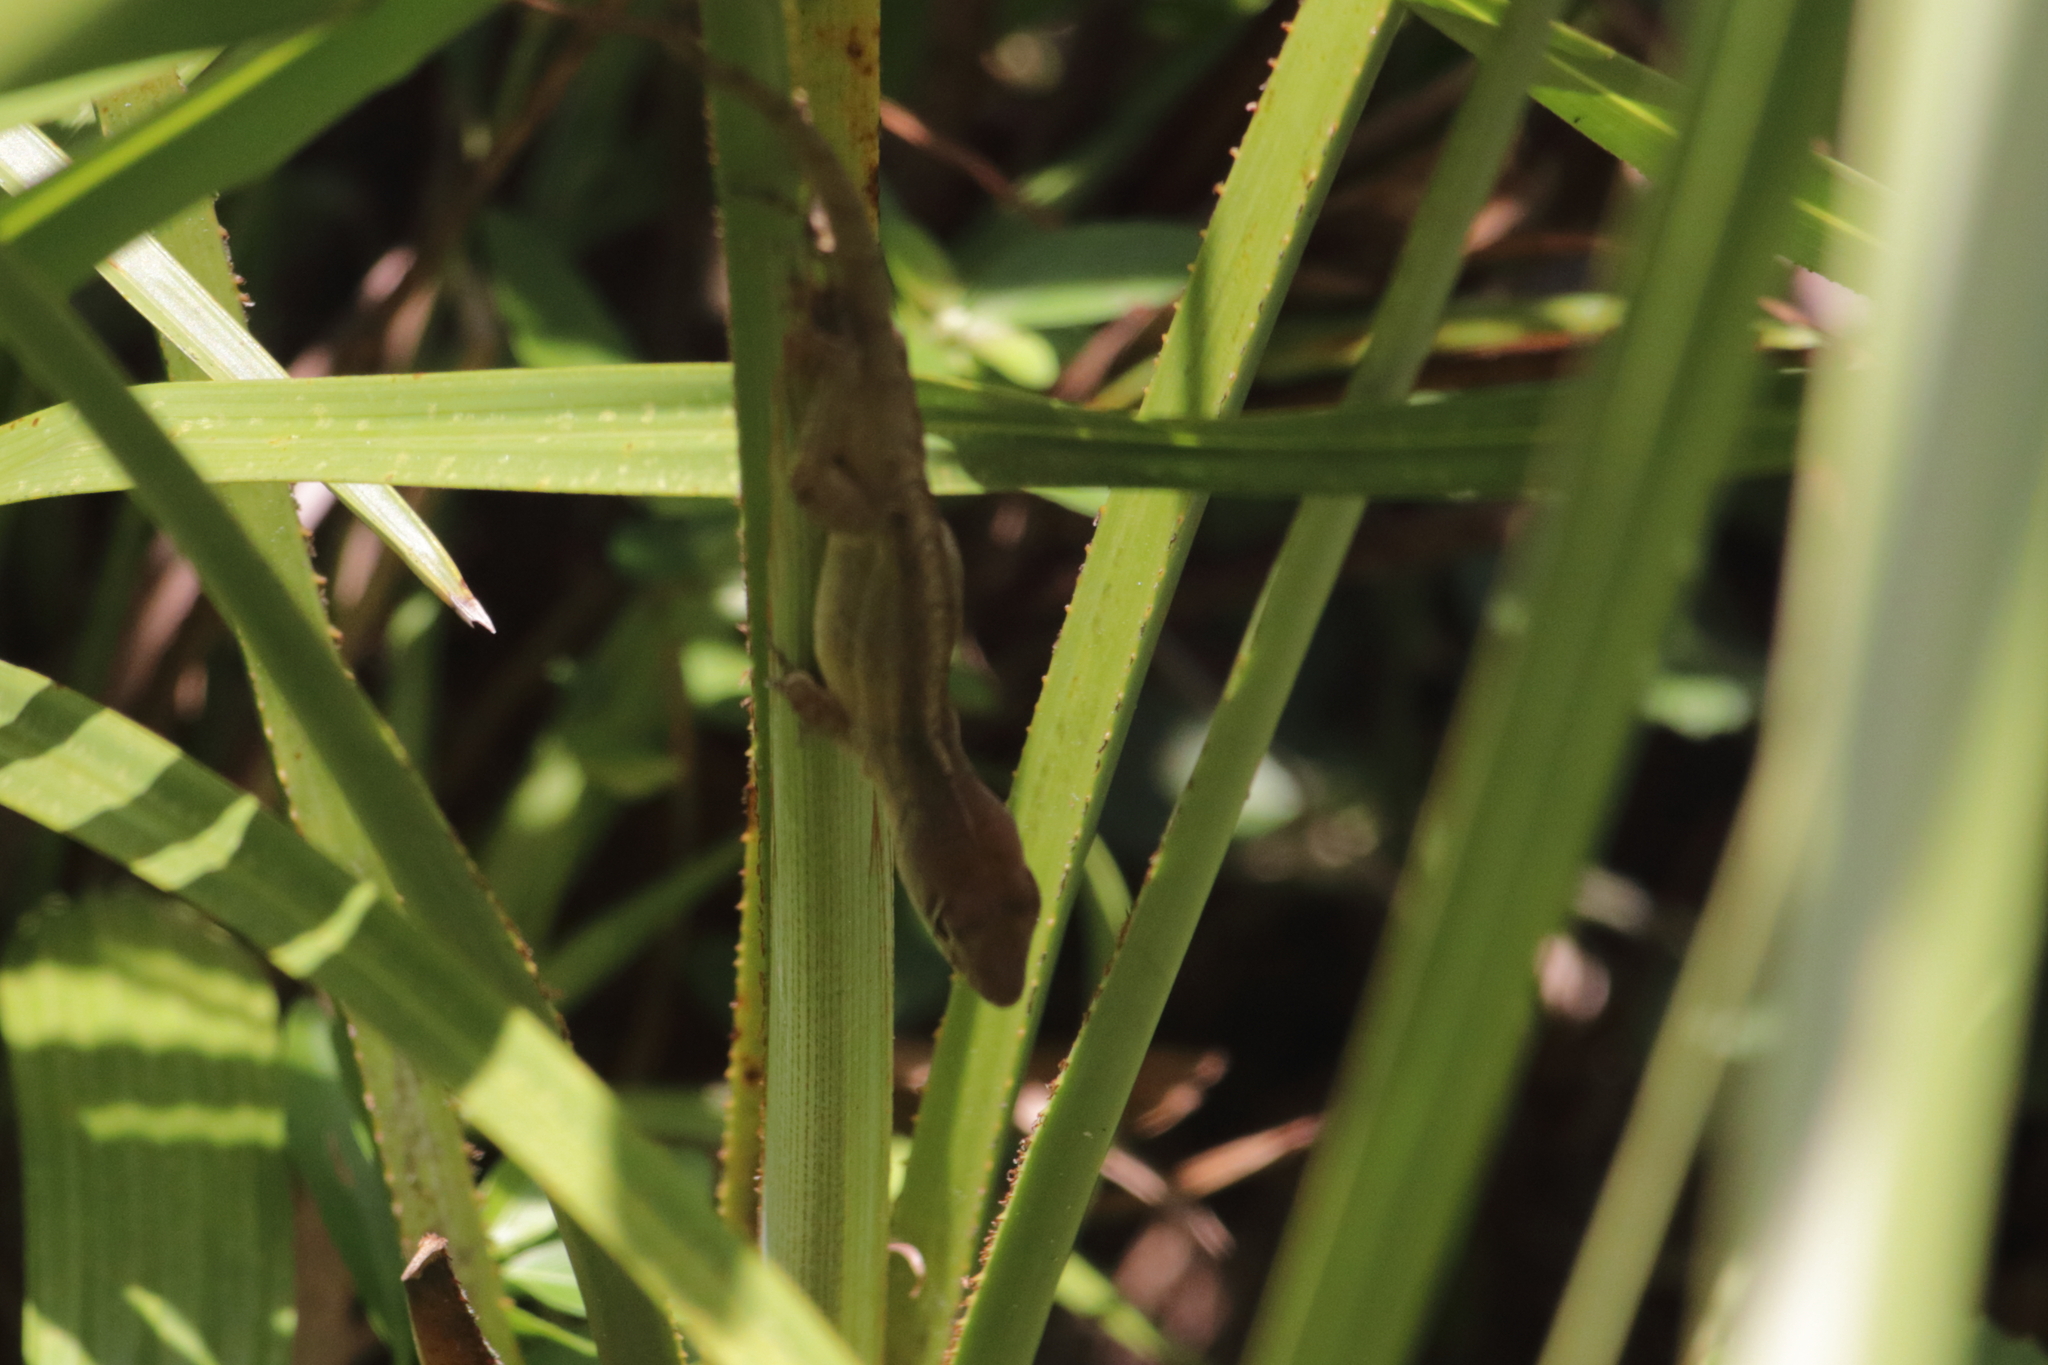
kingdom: Animalia
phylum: Chordata
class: Squamata
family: Dactyloidae
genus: Anolis
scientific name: Anolis sagrei
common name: Brown anole
